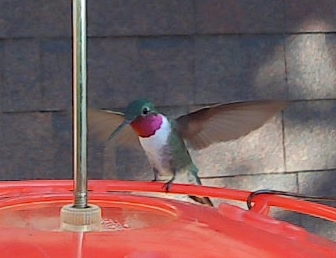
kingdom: Animalia
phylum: Chordata
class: Aves
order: Apodiformes
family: Trochilidae
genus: Selasphorus
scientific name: Selasphorus platycercus
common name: Broad-tailed hummingbird
